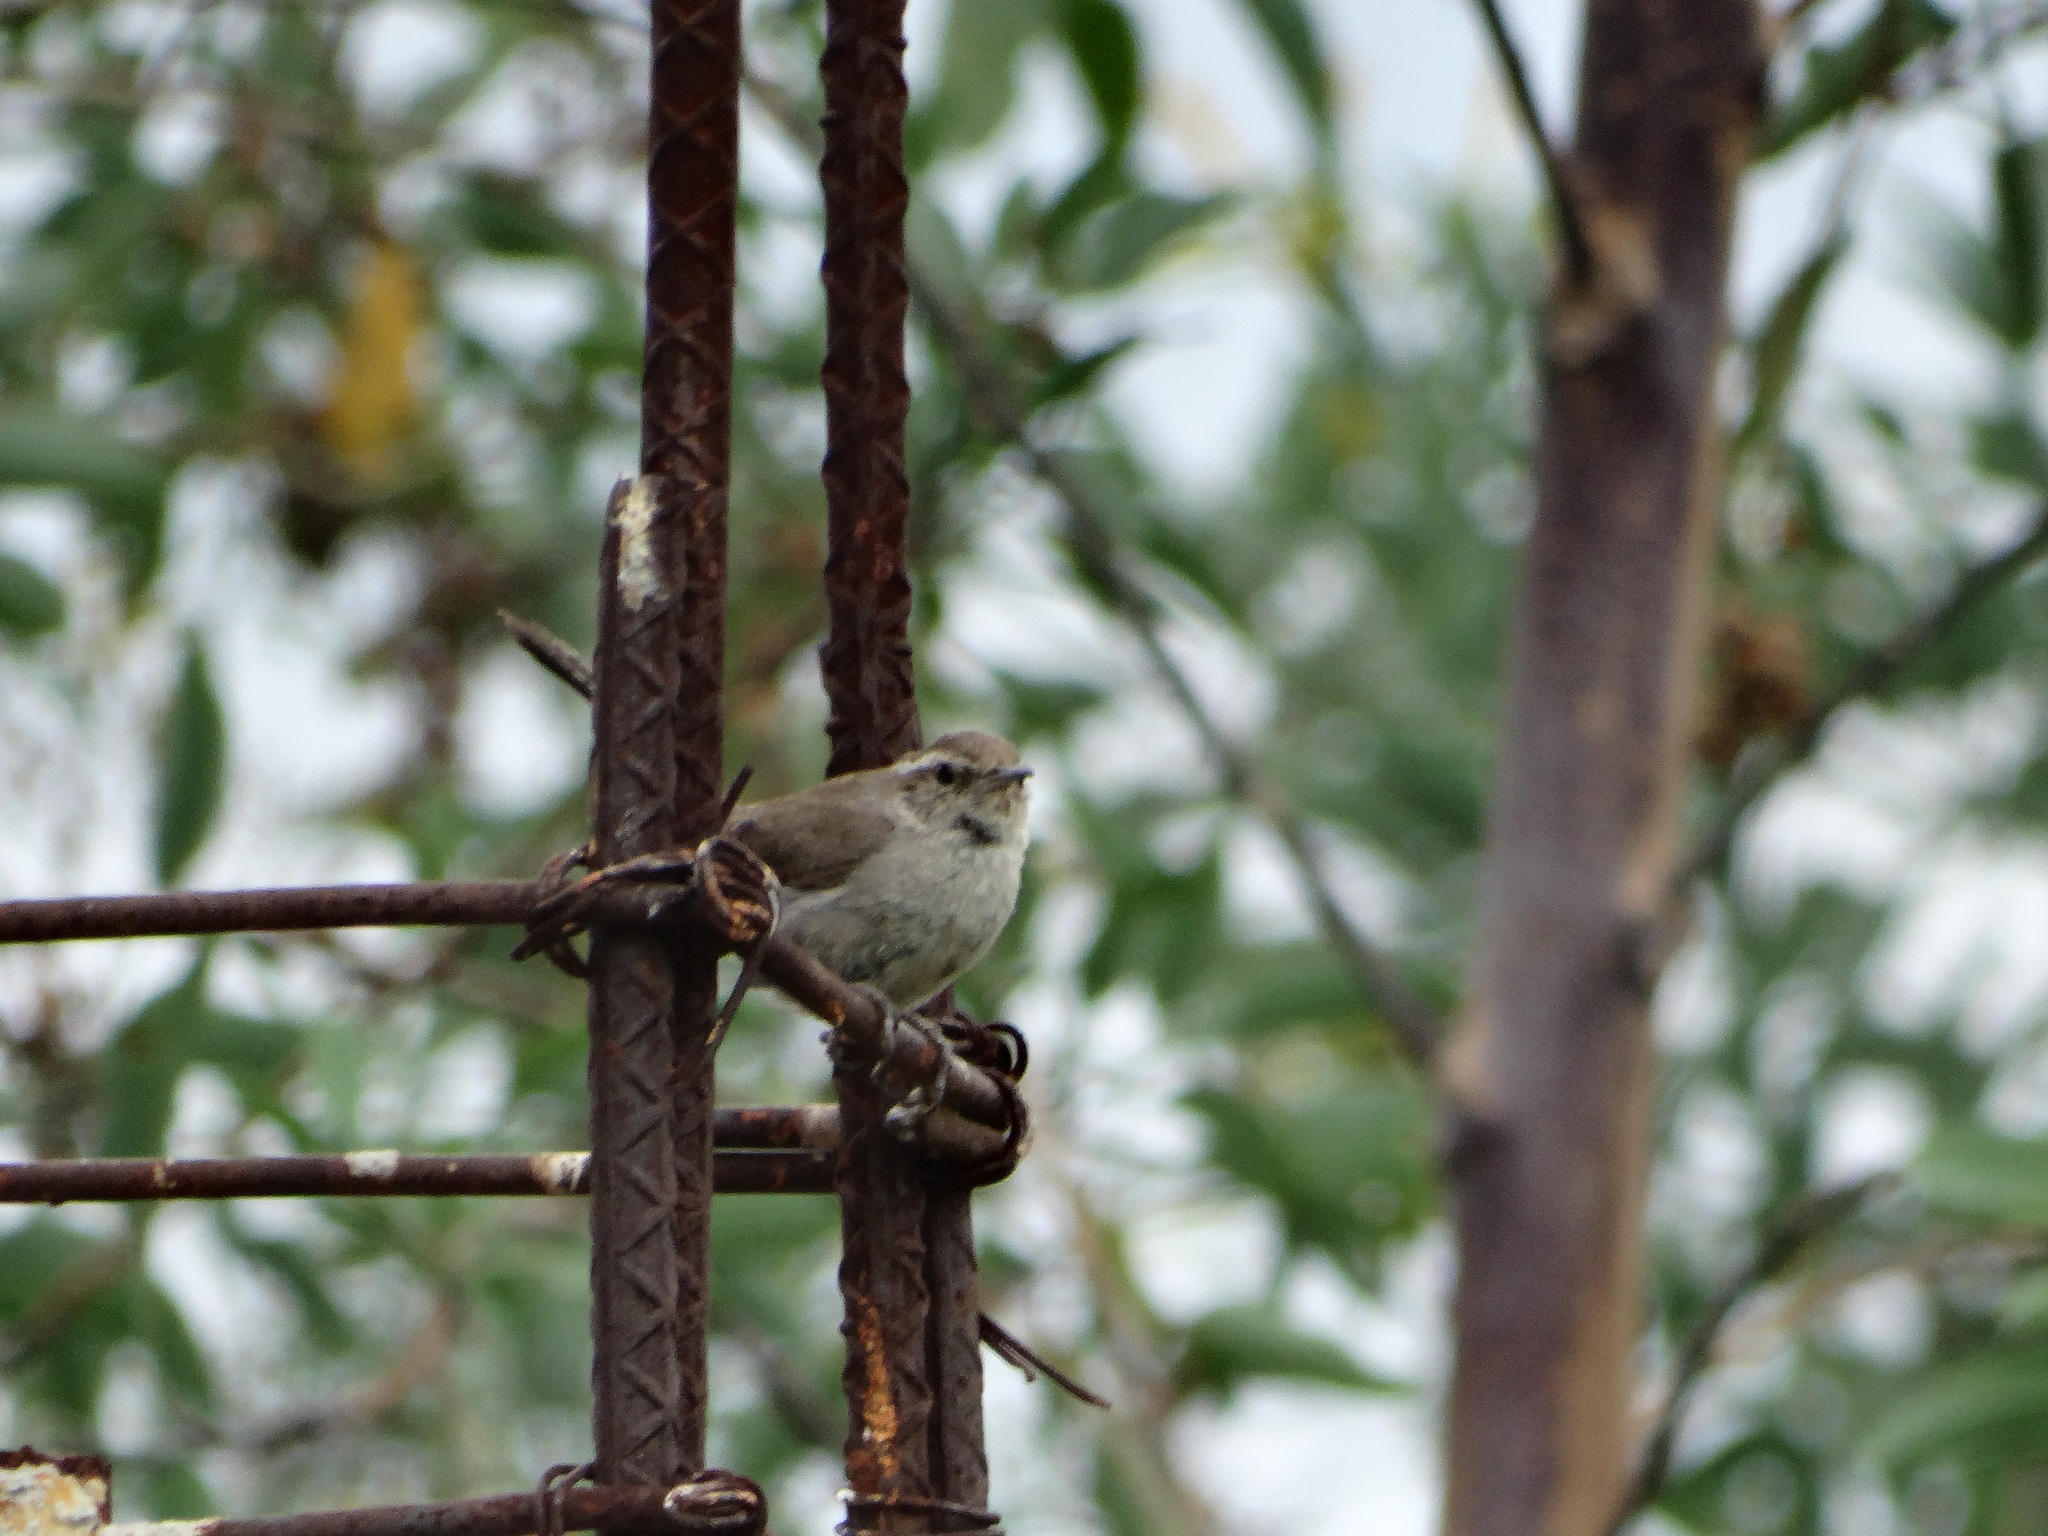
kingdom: Animalia
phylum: Chordata
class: Aves
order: Passeriformes
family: Troglodytidae
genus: Thryomanes
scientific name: Thryomanes bewickii
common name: Bewick's wren
